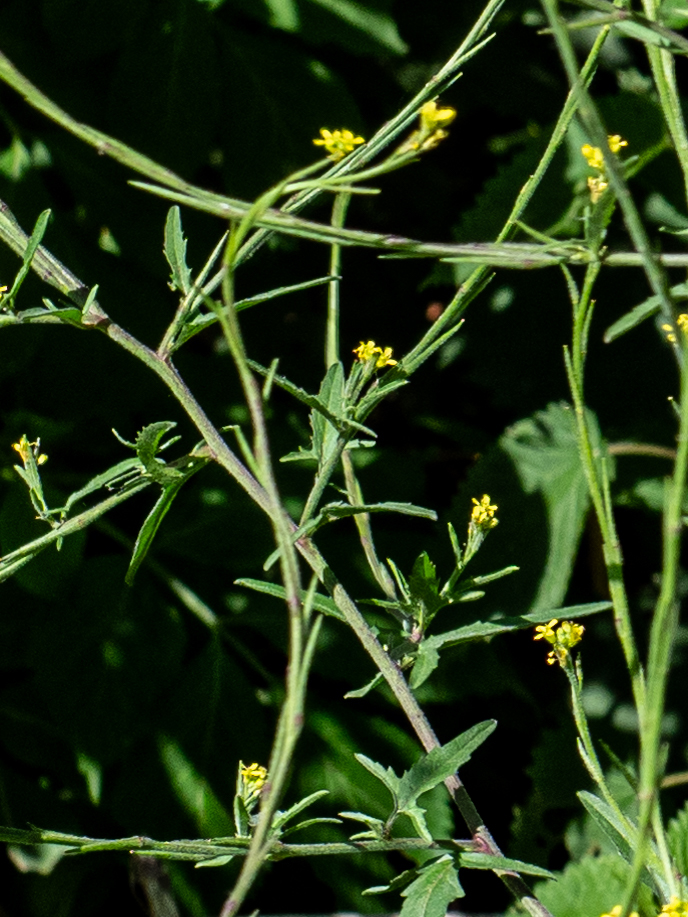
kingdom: Plantae
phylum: Tracheophyta
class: Magnoliopsida
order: Brassicales
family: Brassicaceae
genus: Sisymbrium
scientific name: Sisymbrium officinale
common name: Hedge mustard
